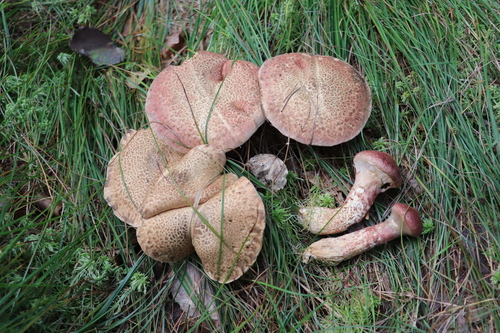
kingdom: Fungi
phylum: Basidiomycota
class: Agaricomycetes
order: Boletales
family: Suillaceae
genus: Suillus
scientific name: Suillus spraguei
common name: Painted suillus
